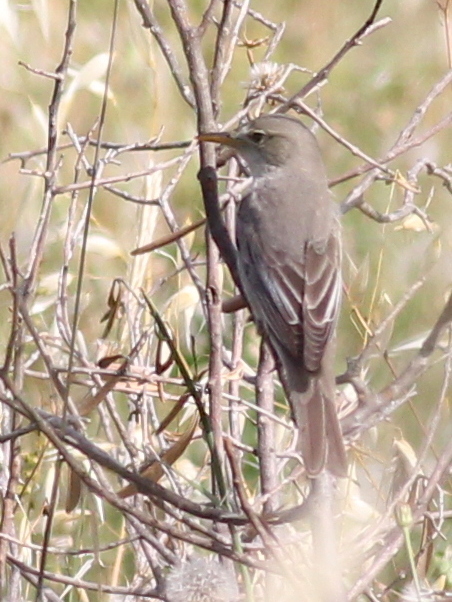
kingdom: Animalia
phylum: Chordata
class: Aves
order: Passeriformes
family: Acrocephalidae
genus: Hippolais
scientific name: Hippolais olivetorum
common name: Olive-tree warbler
